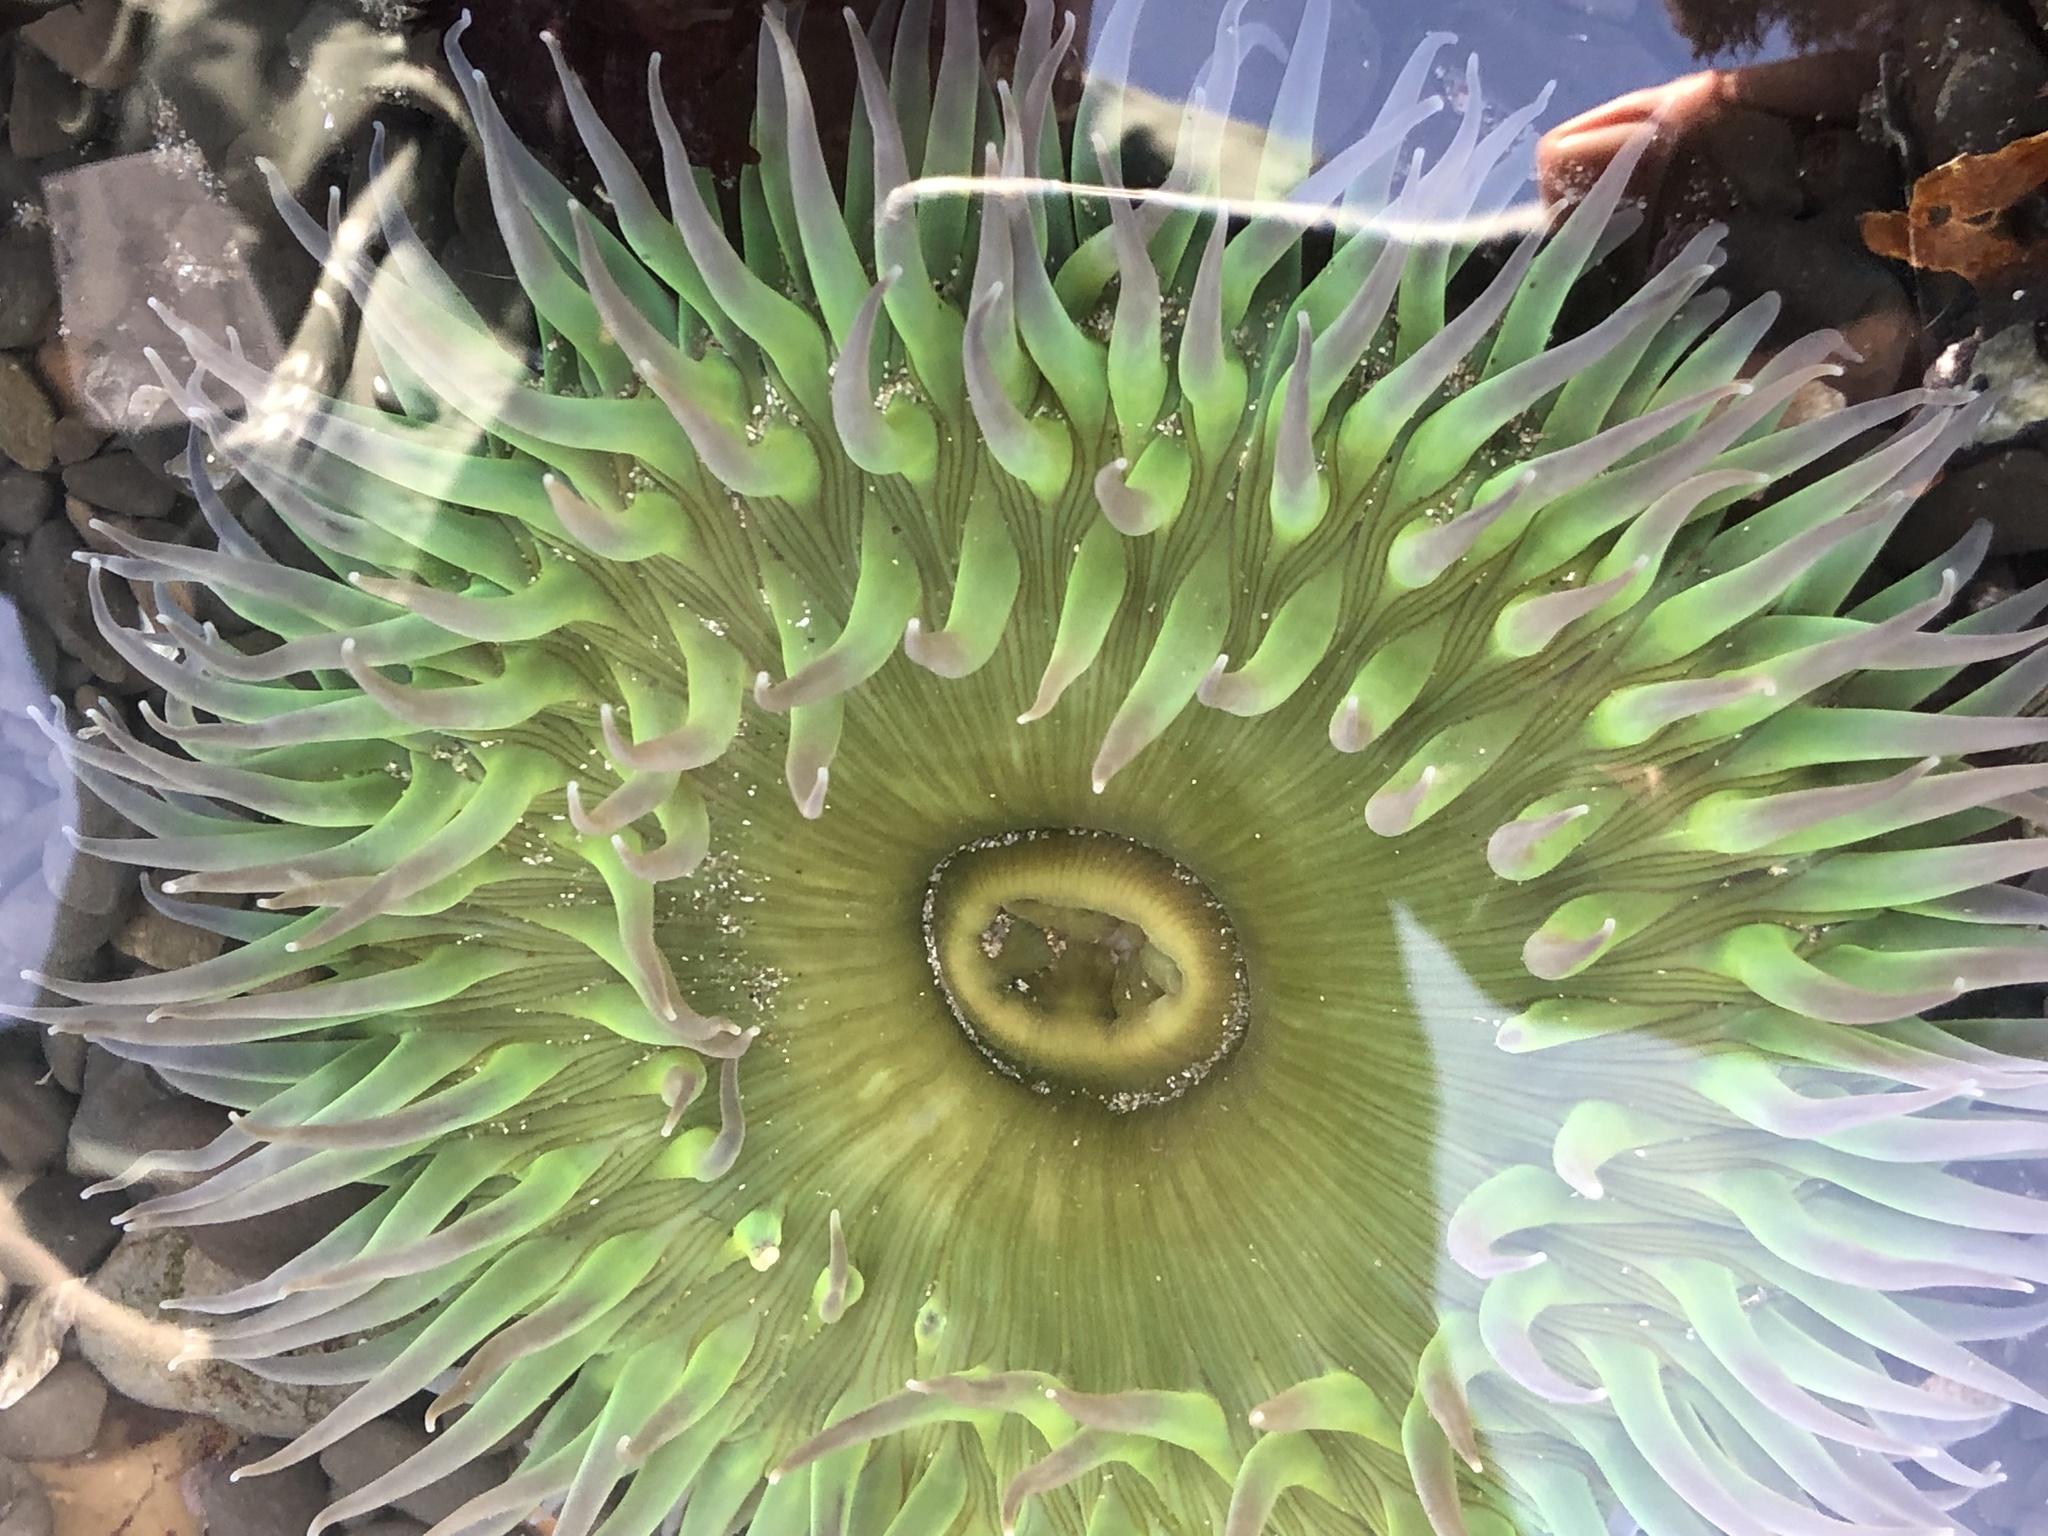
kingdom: Animalia
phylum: Cnidaria
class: Anthozoa
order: Actiniaria
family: Actiniidae
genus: Anthopleura
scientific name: Anthopleura xanthogrammica
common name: Giant green anemone
